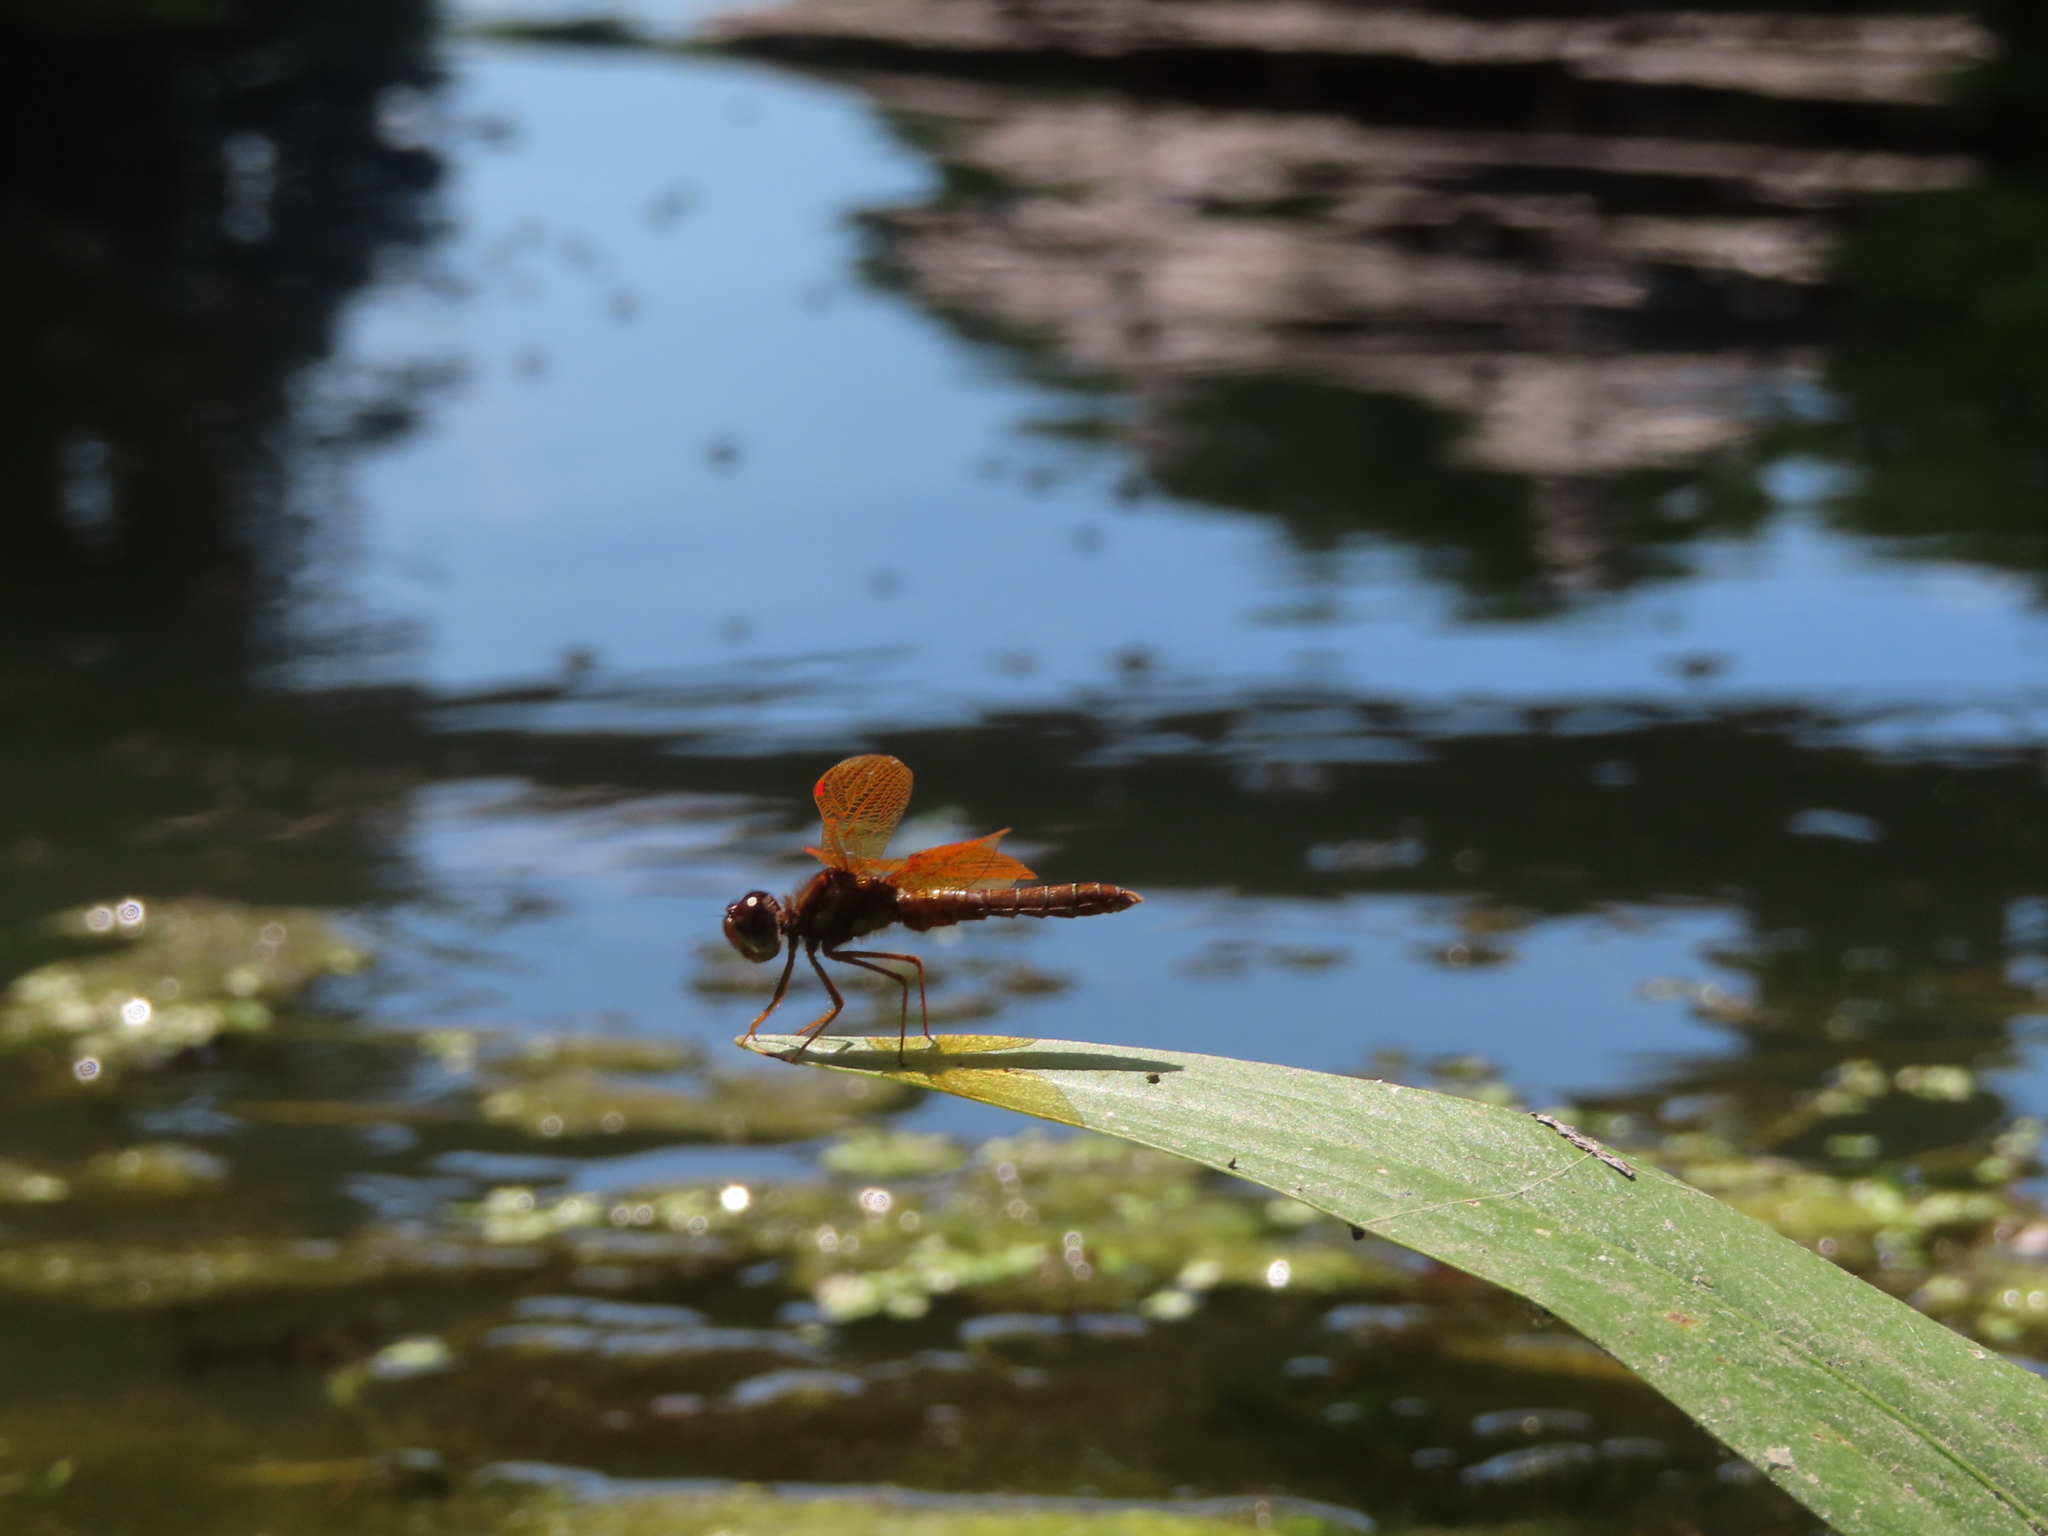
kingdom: Animalia
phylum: Arthropoda
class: Insecta
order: Odonata
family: Libellulidae
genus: Perithemis
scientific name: Perithemis tenera
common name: Eastern amberwing
